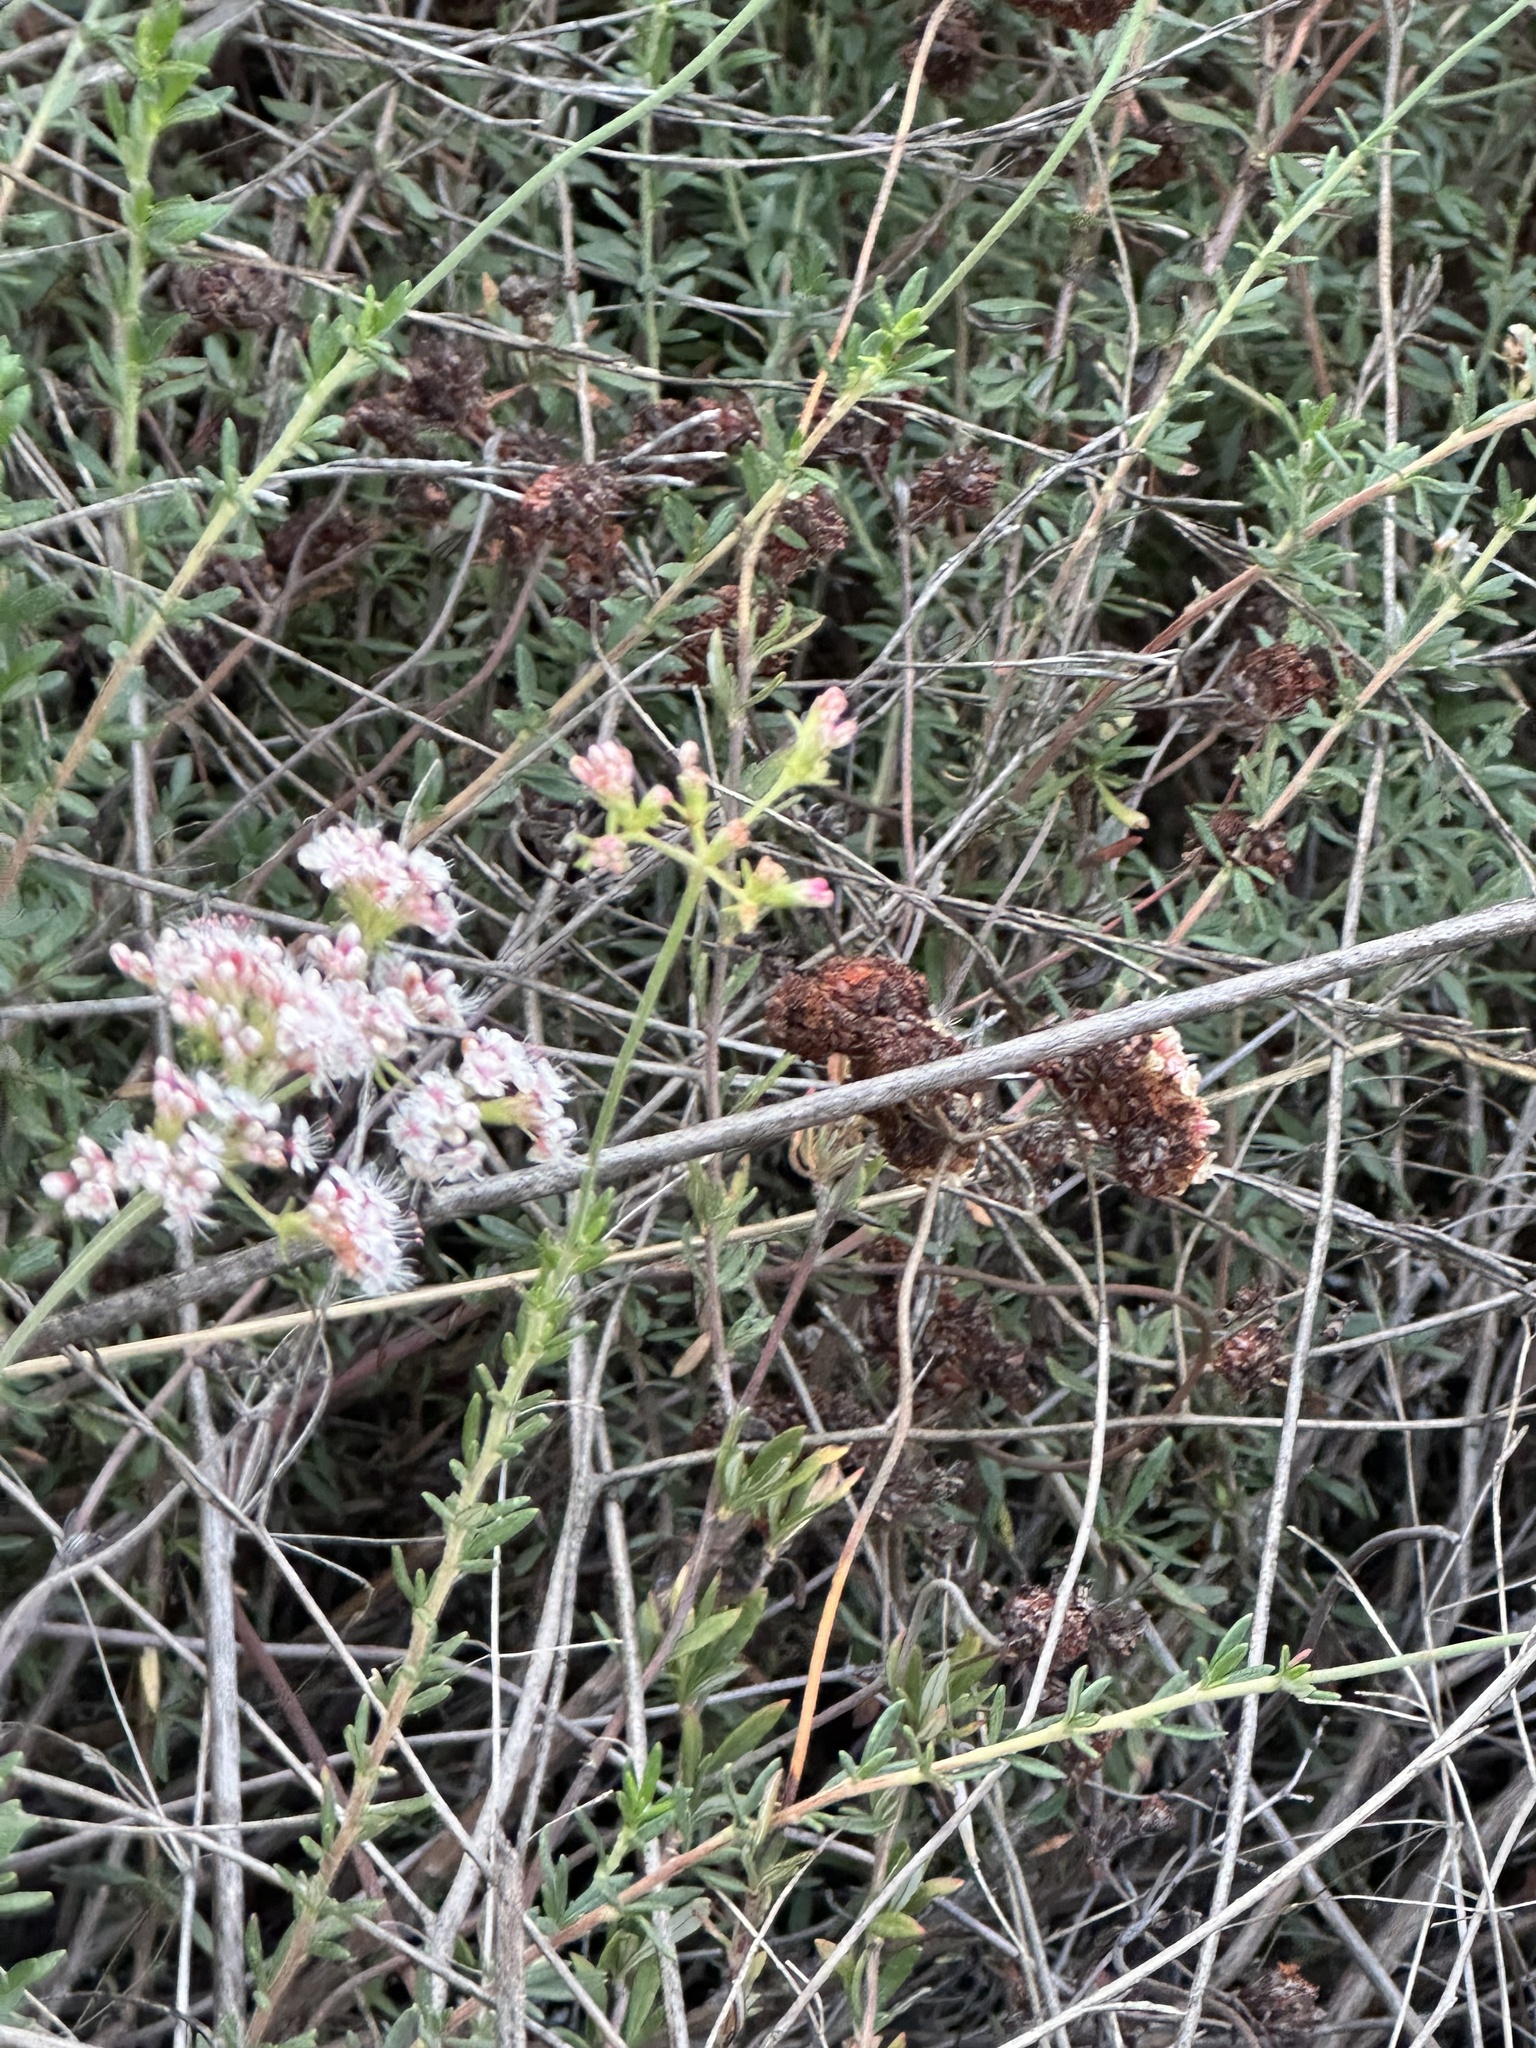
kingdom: Plantae
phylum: Tracheophyta
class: Magnoliopsida
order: Caryophyllales
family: Polygonaceae
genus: Eriogonum
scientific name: Eriogonum fasciculatum
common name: California wild buckwheat
